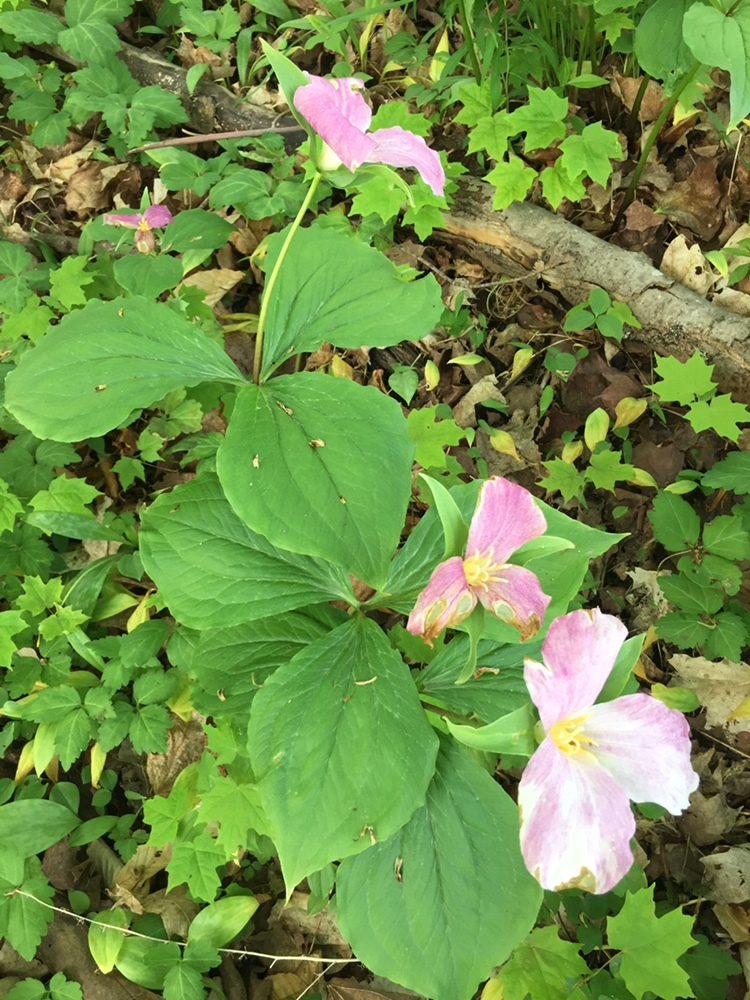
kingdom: Plantae
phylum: Tracheophyta
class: Liliopsida
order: Liliales
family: Melanthiaceae
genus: Trillium
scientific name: Trillium grandiflorum
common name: Great white trillium
